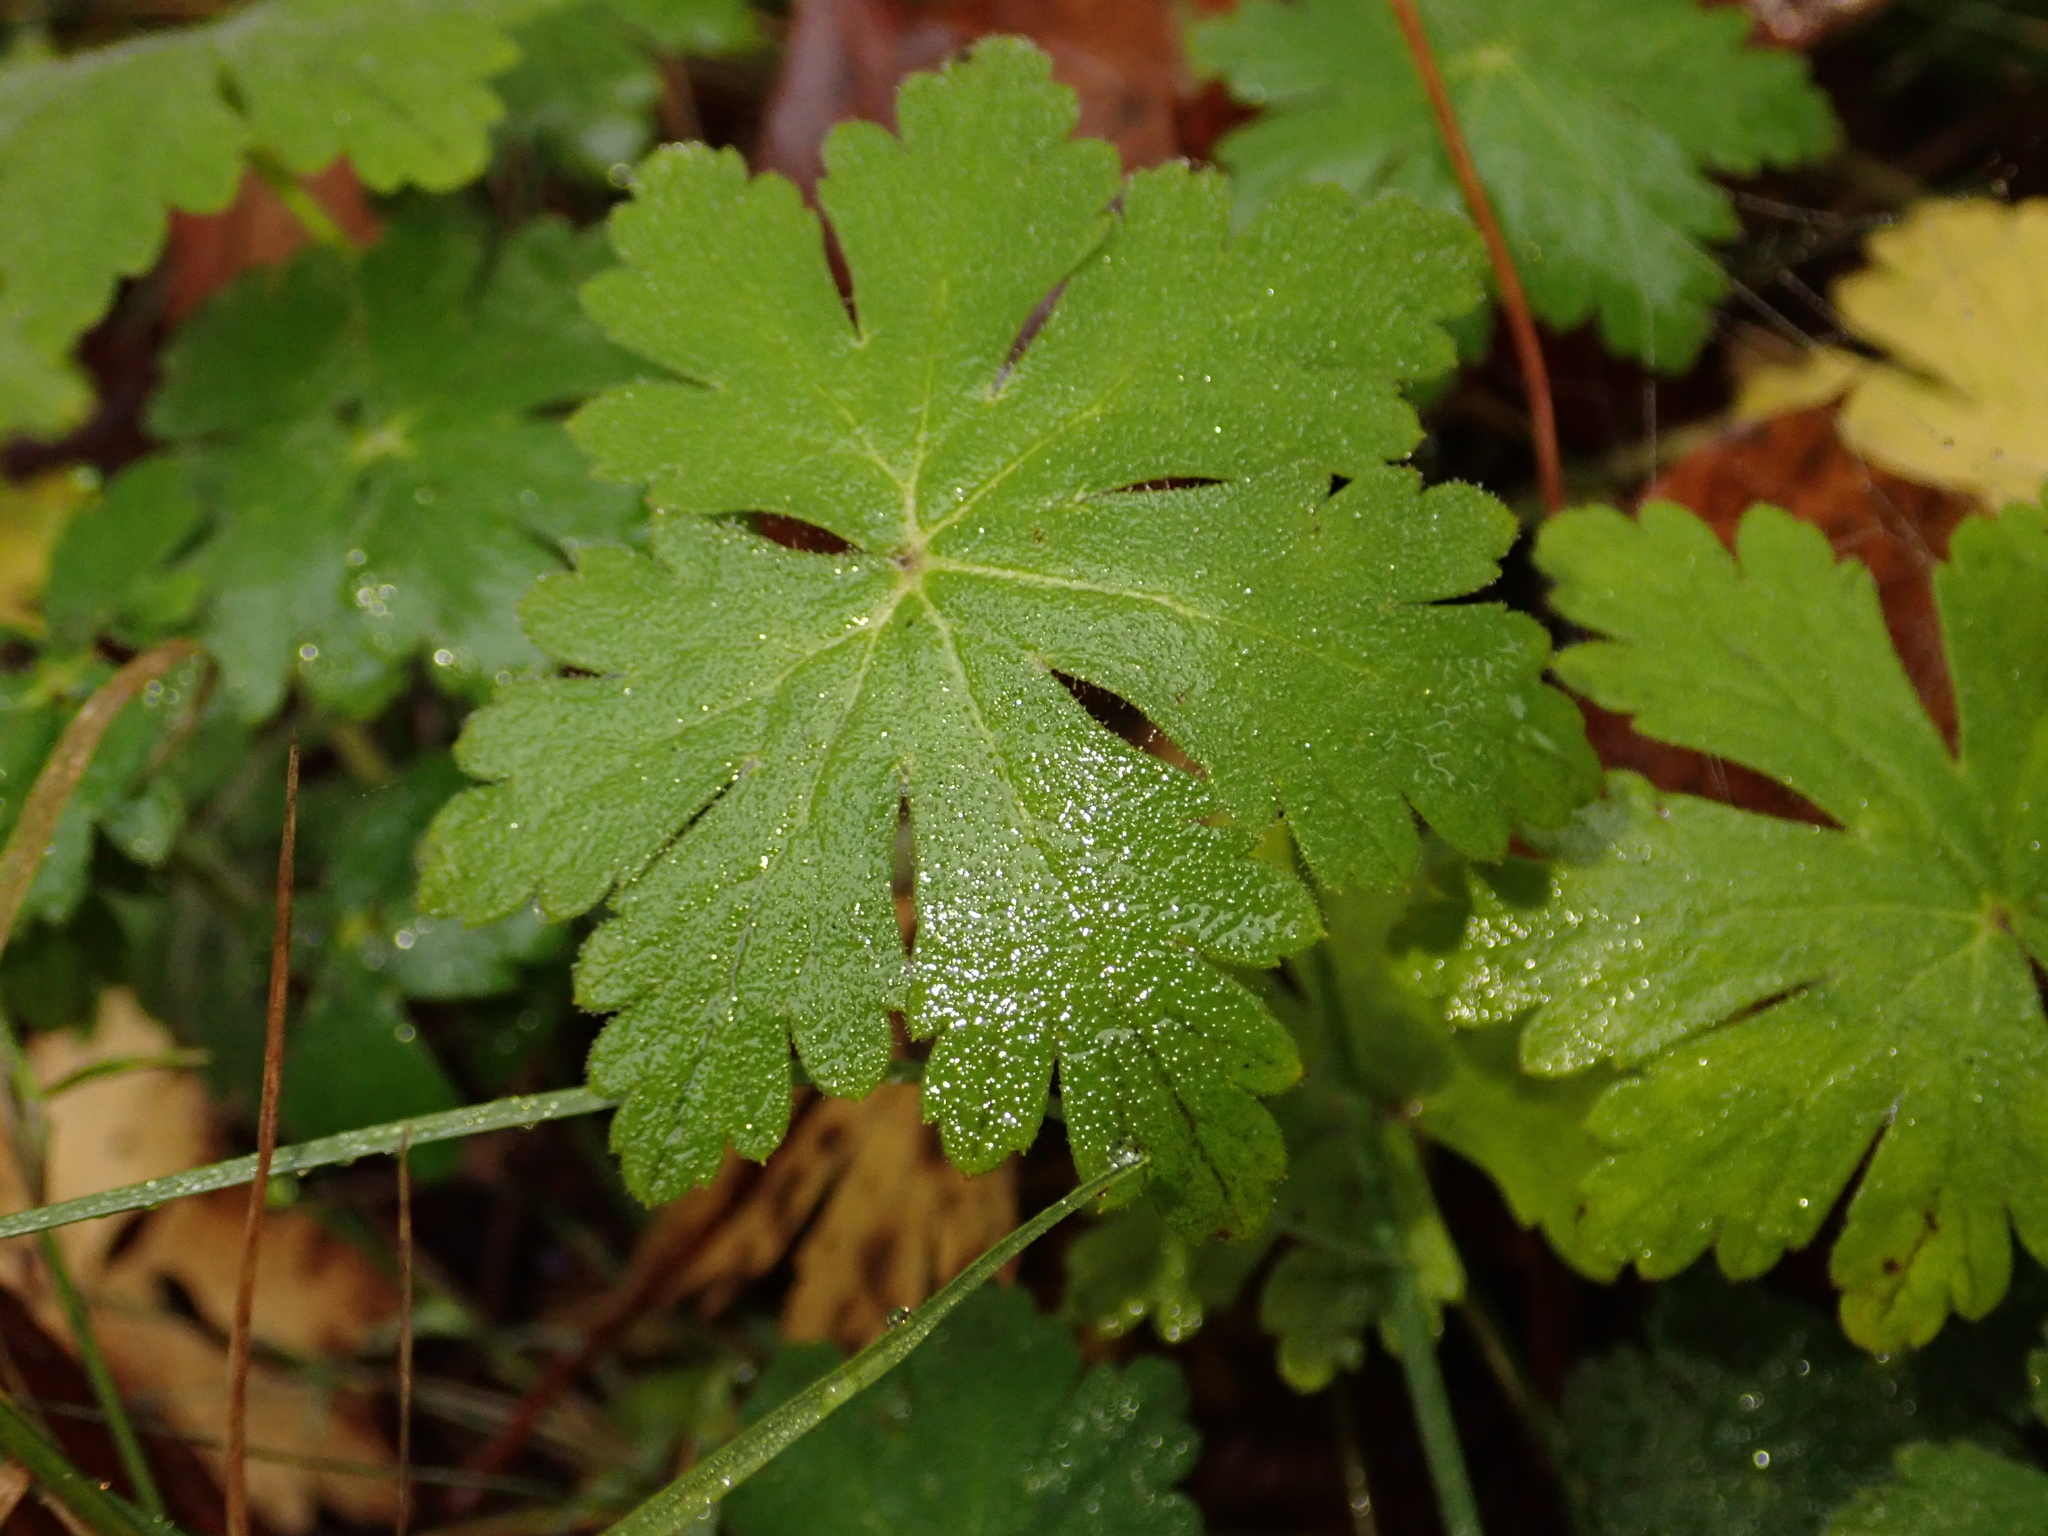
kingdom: Plantae
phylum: Tracheophyta
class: Magnoliopsida
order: Geraniales
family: Geraniaceae
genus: Geranium
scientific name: Geranium macrorrhizum
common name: Rock crane's-bill
